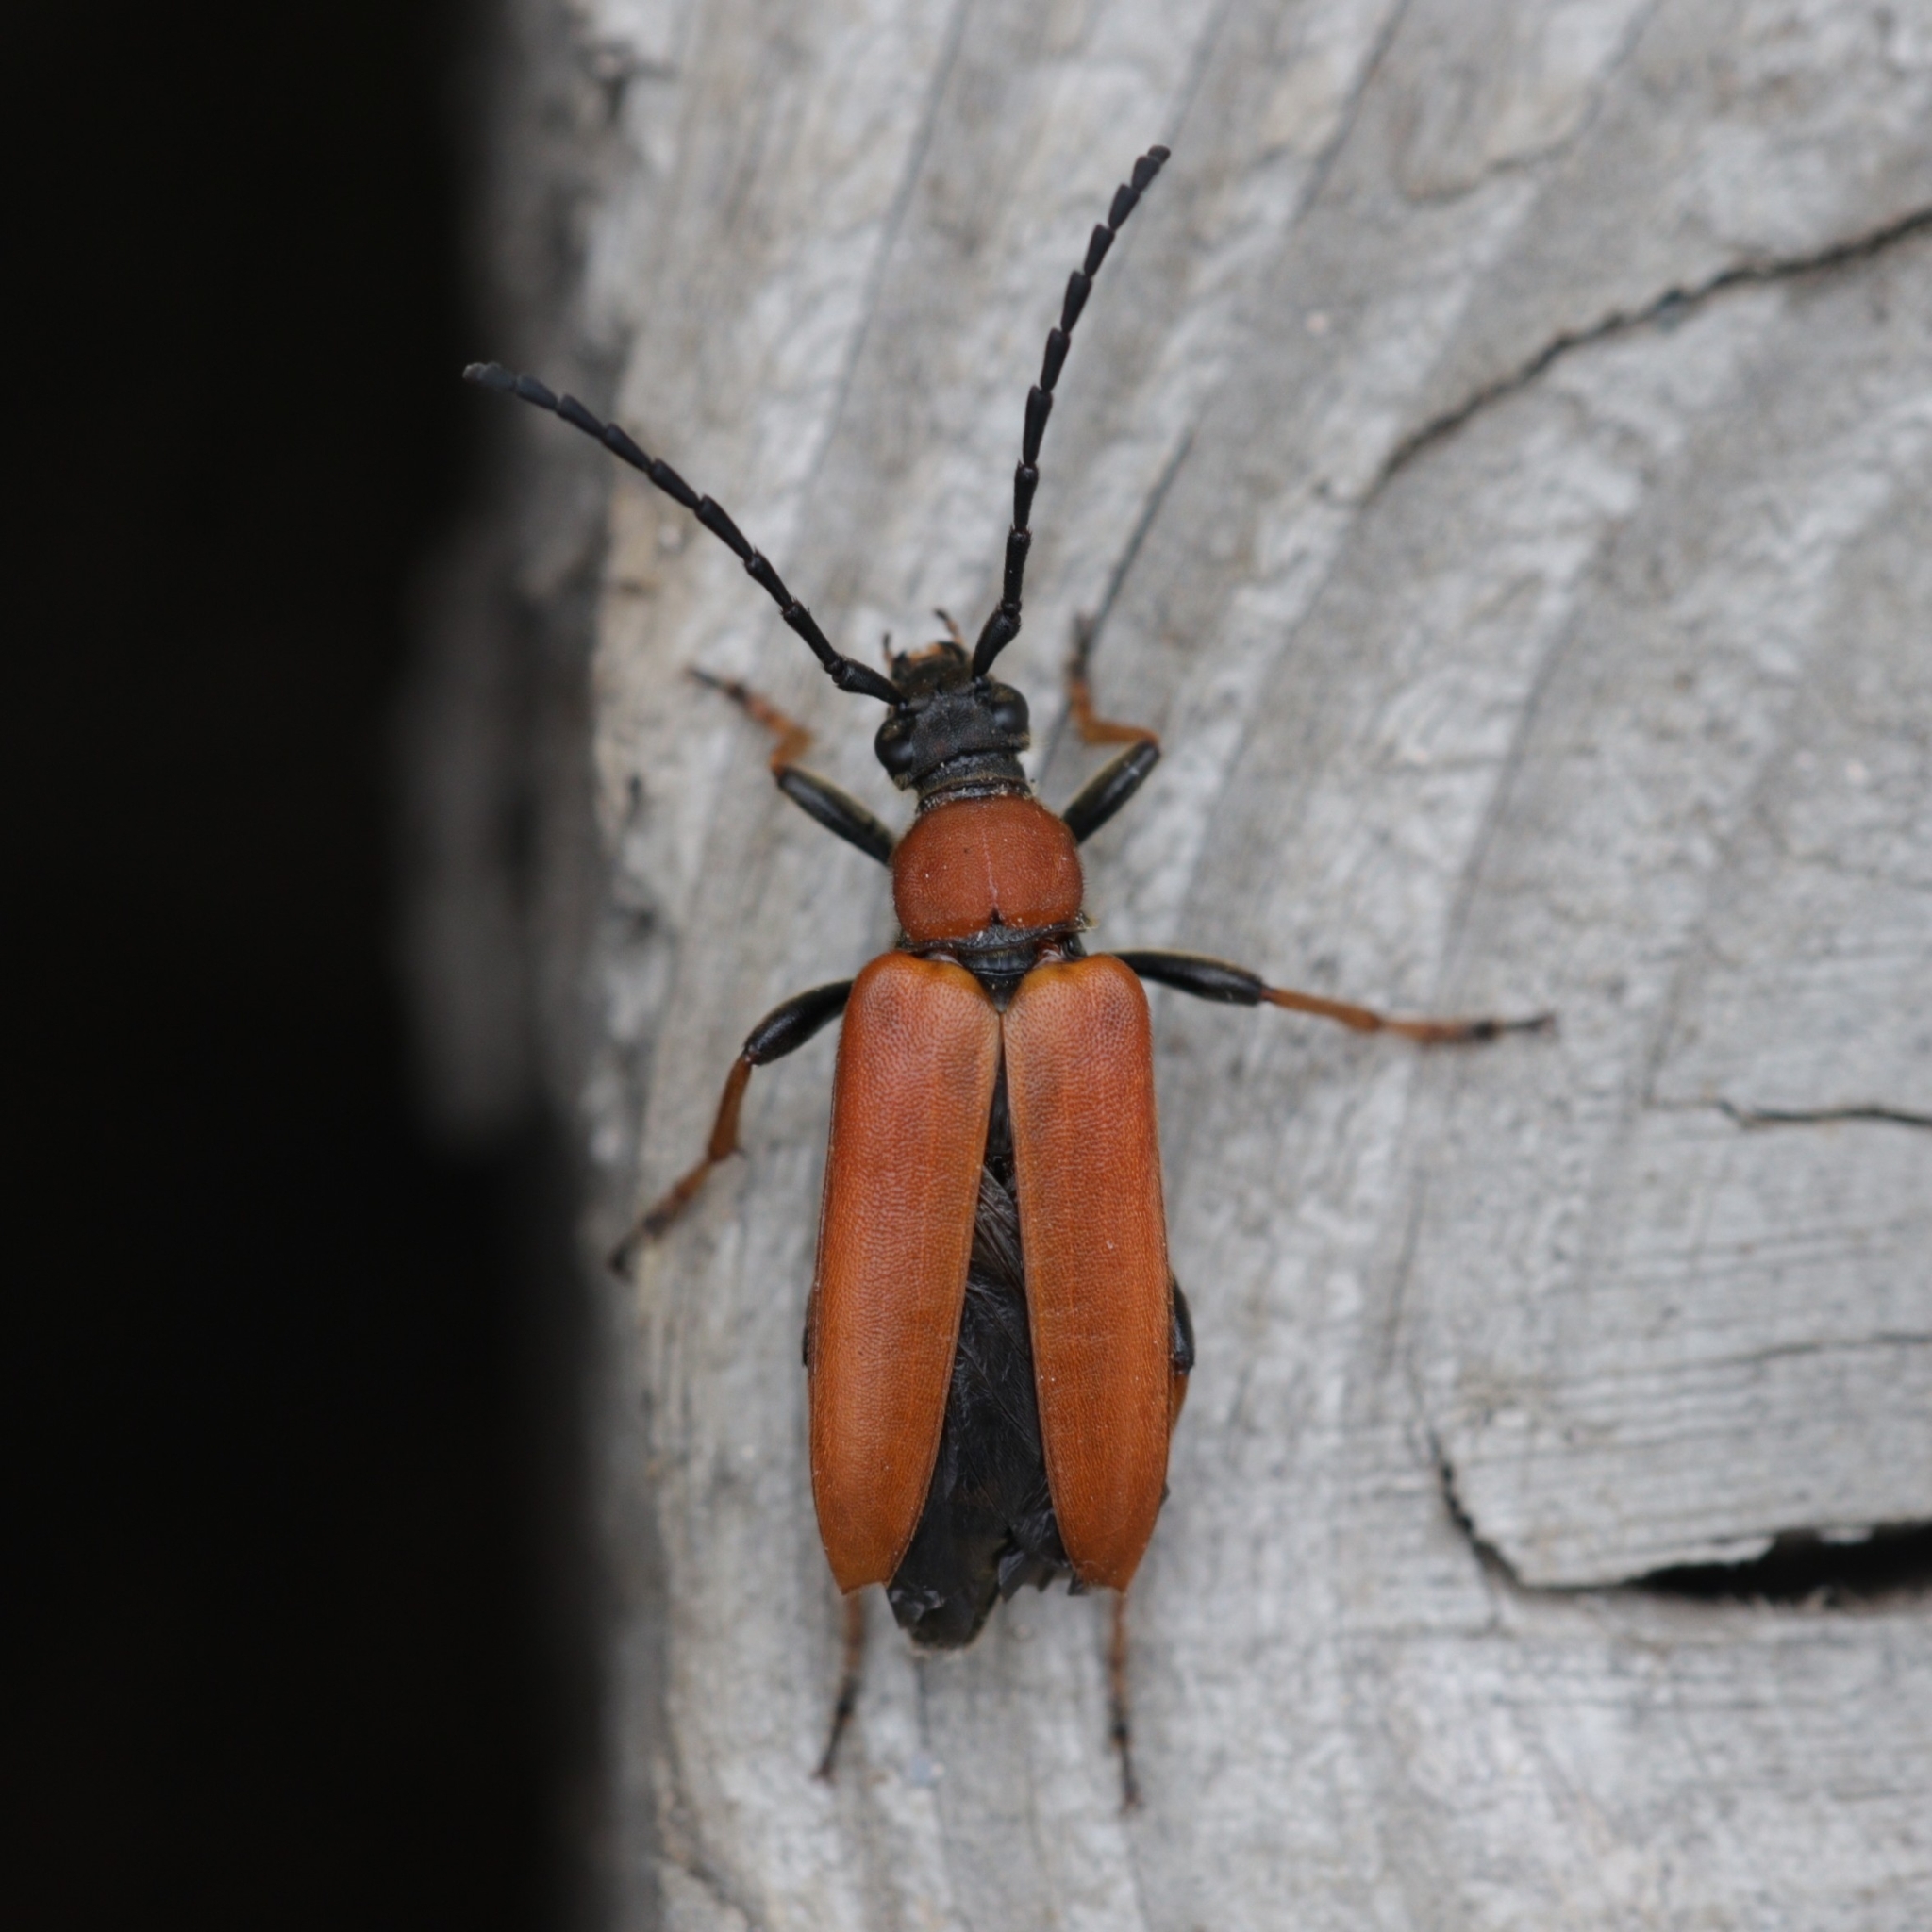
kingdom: Animalia
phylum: Arthropoda
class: Insecta
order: Coleoptera
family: Cerambycidae
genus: Stictoleptura
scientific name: Stictoleptura rubra
